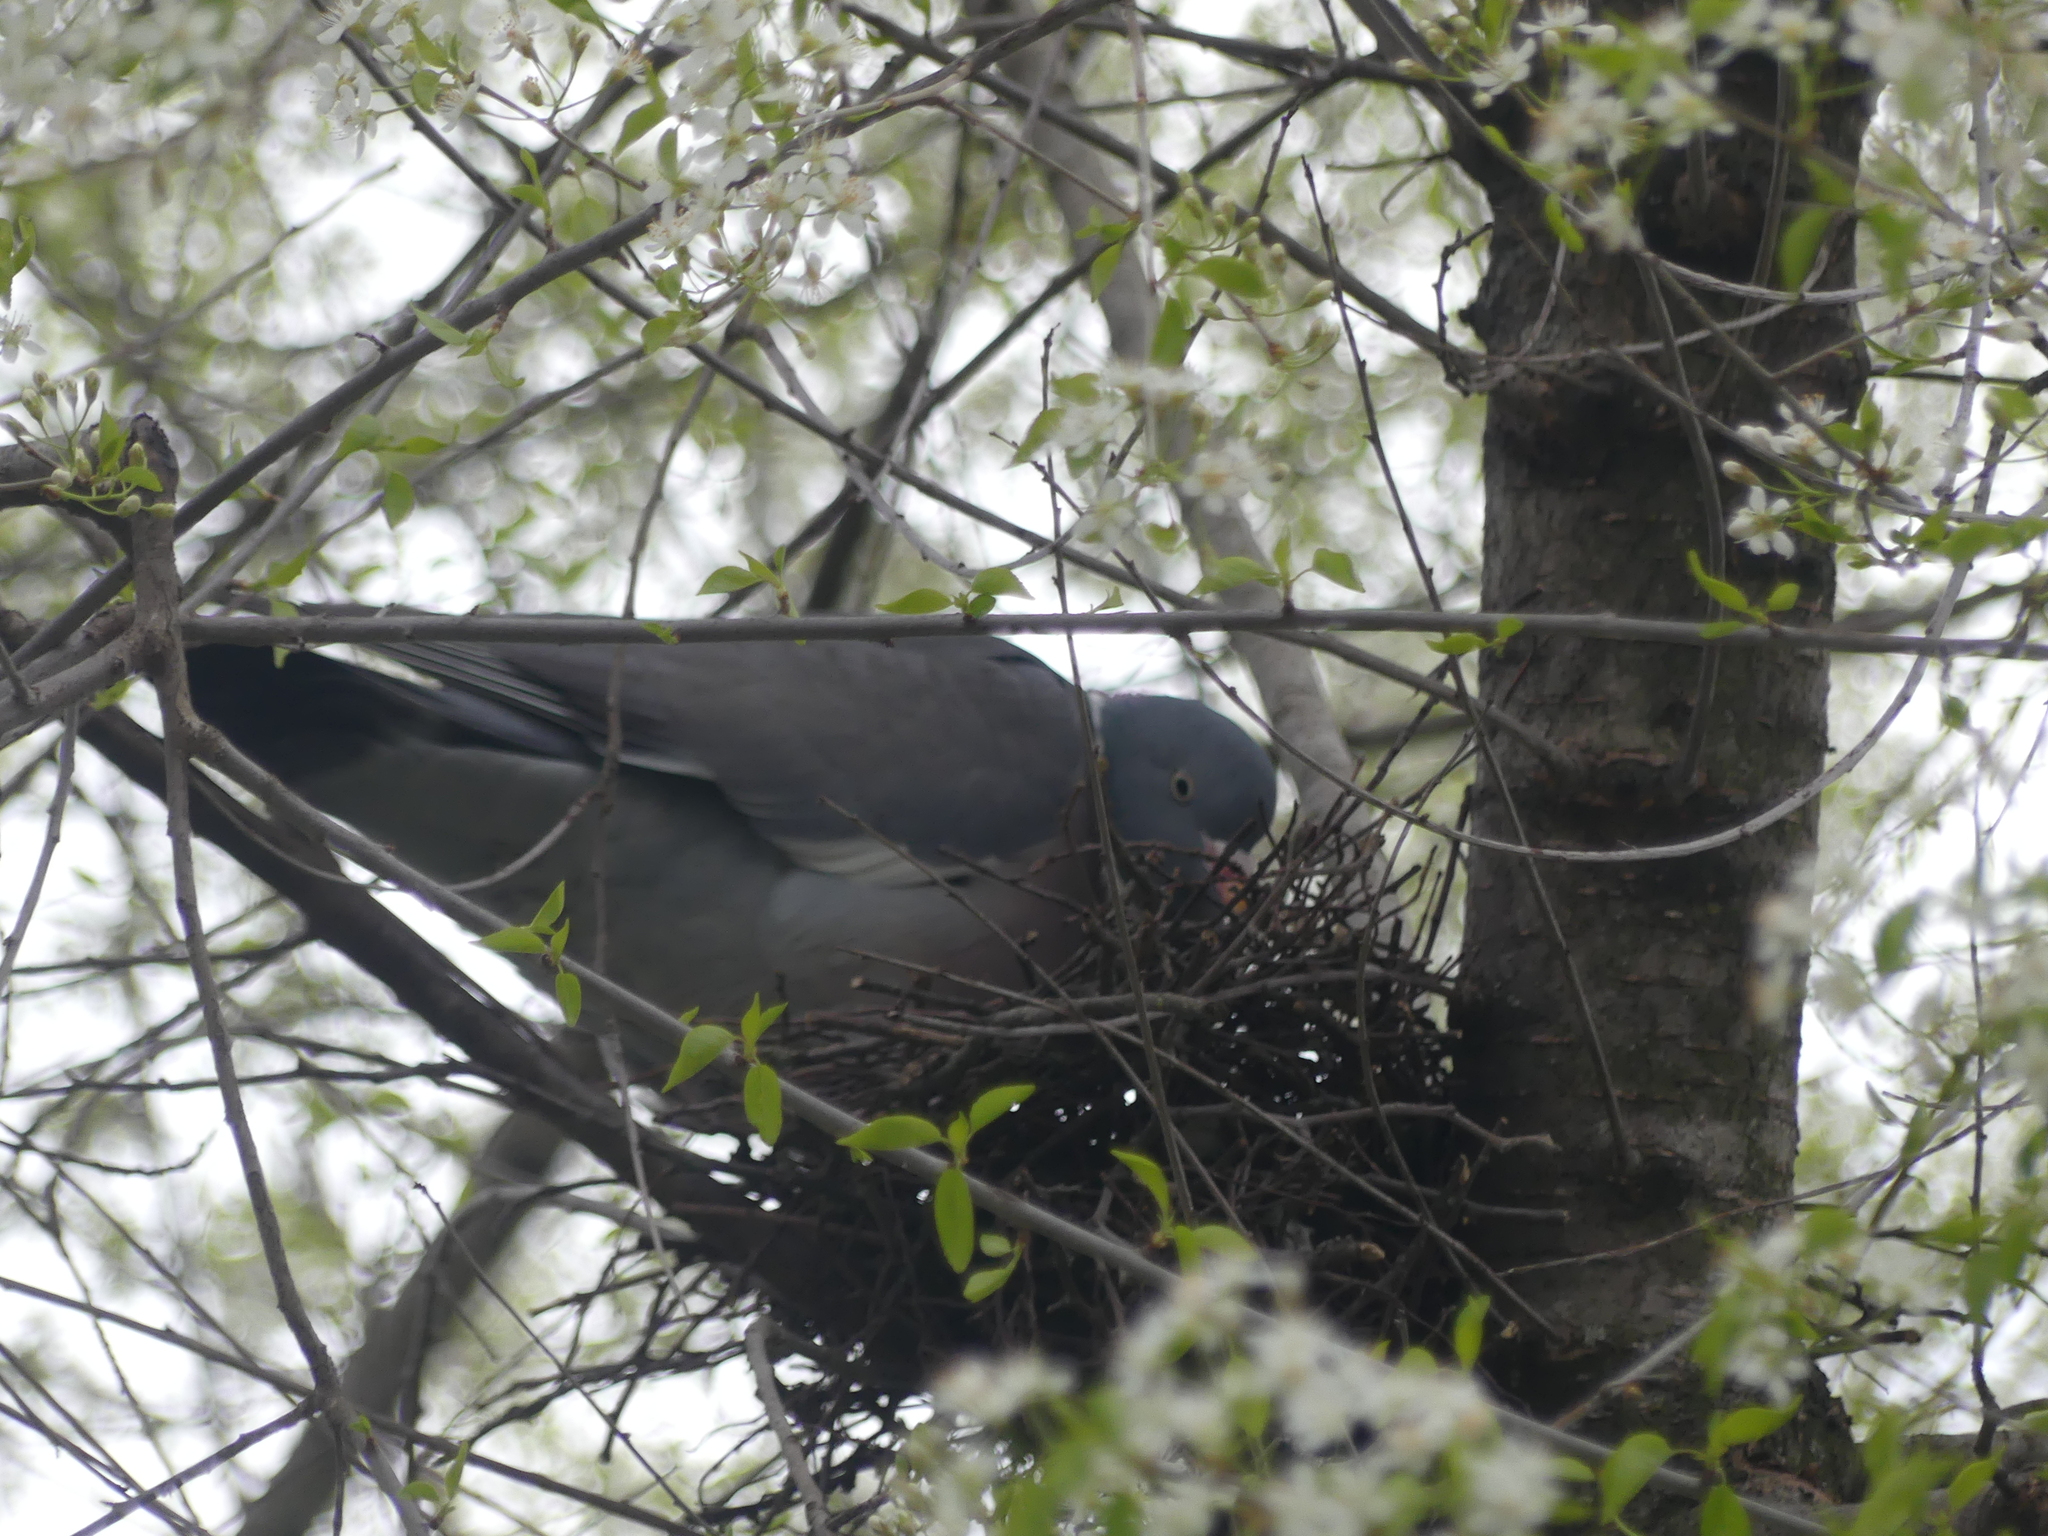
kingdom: Animalia
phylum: Chordata
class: Aves
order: Columbiformes
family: Columbidae
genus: Columba
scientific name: Columba palumbus
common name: Common wood pigeon
